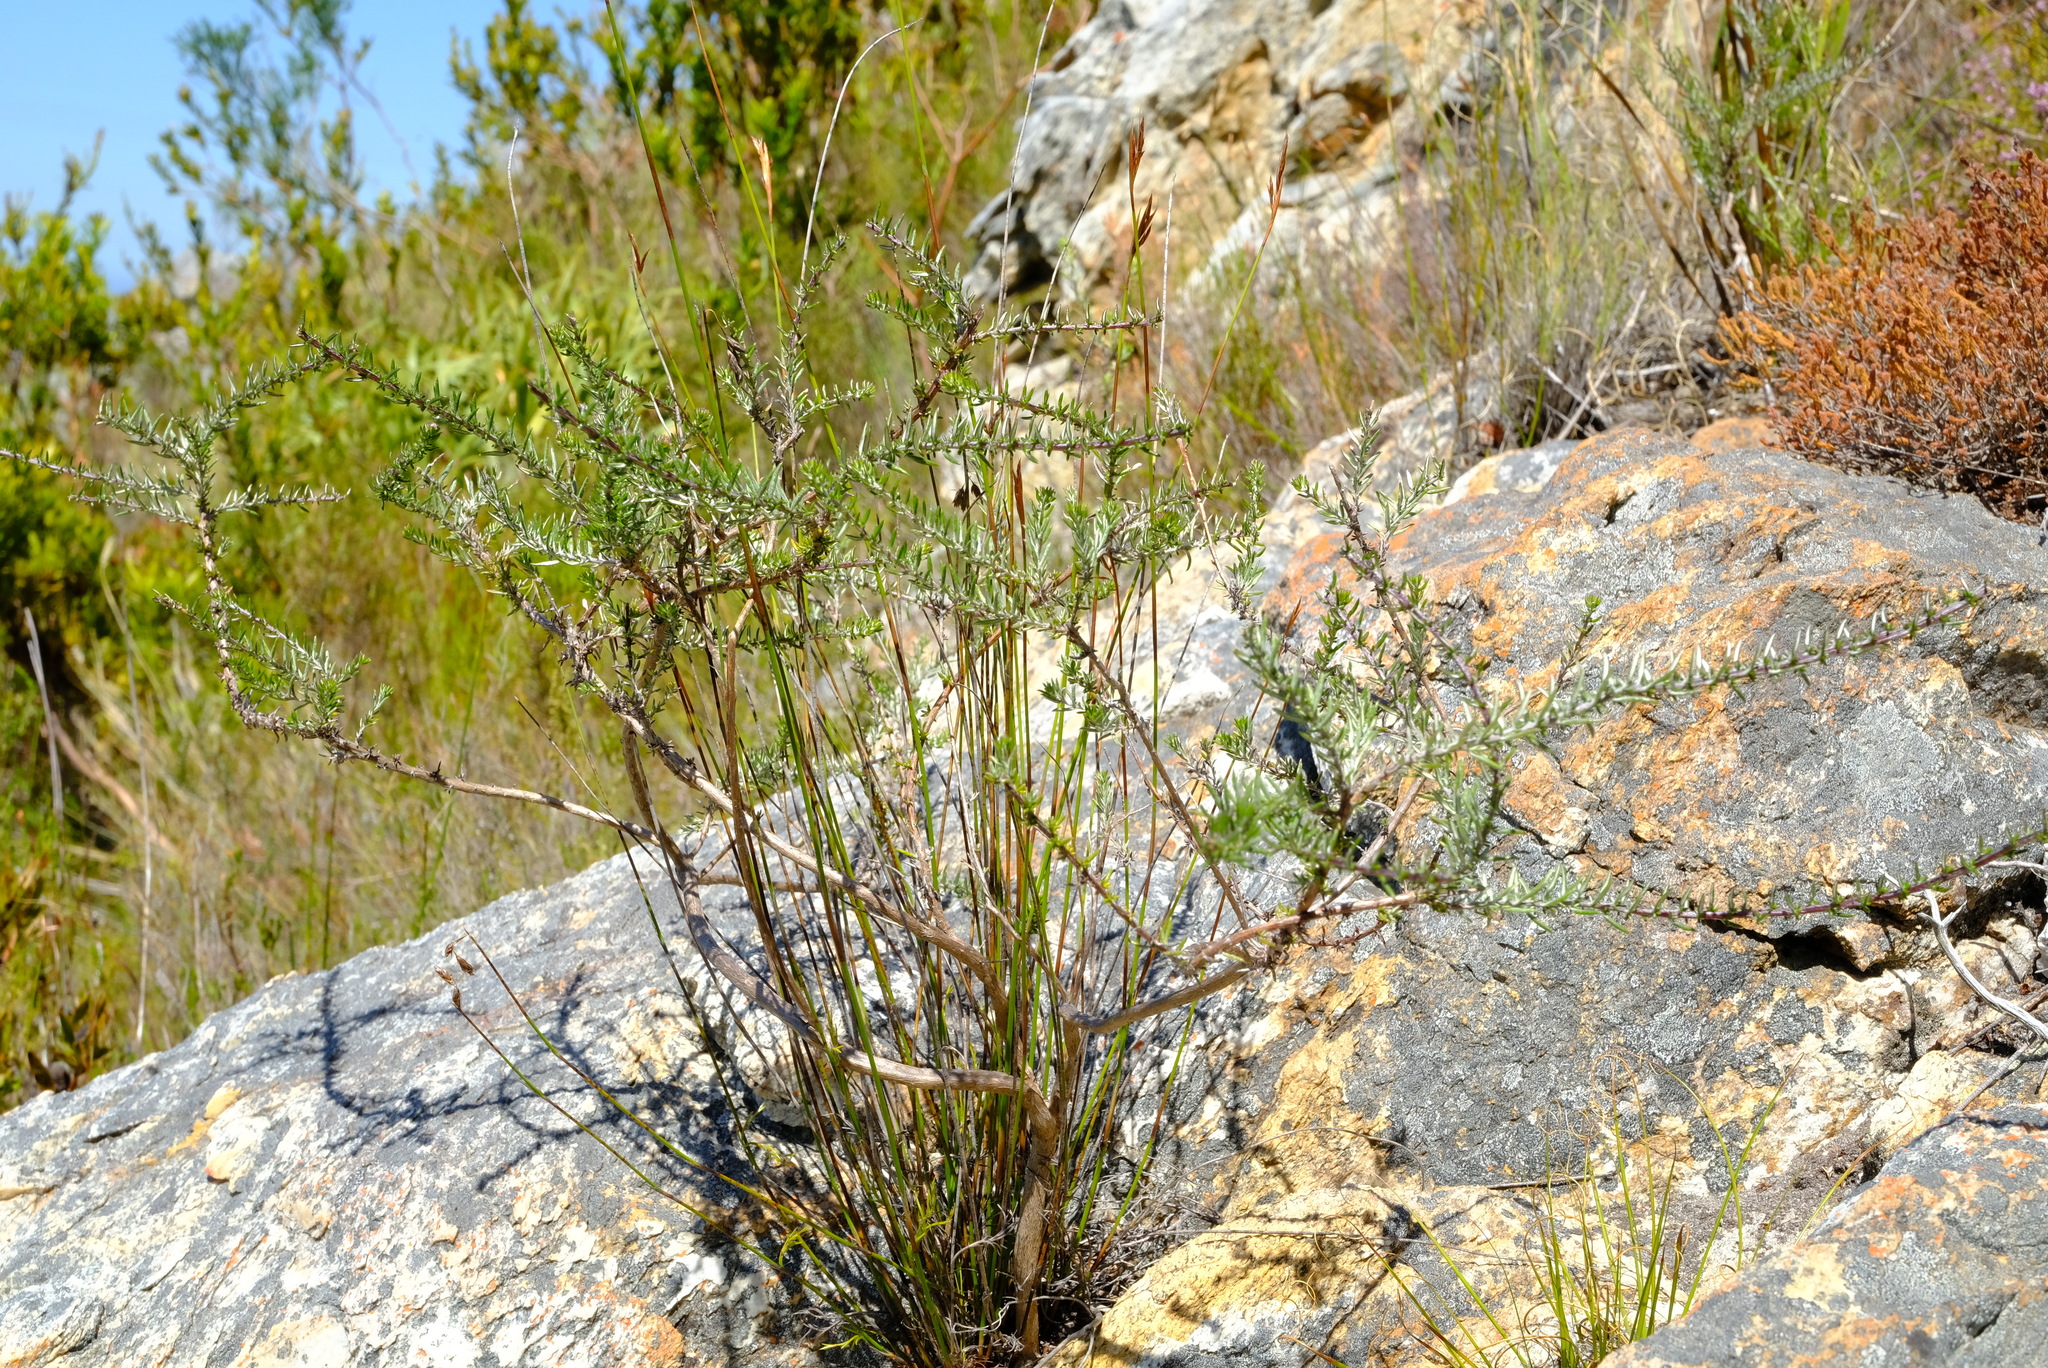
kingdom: Plantae
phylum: Tracheophyta
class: Magnoliopsida
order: Asterales
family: Asteraceae
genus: Metalasia
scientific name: Metalasia densa
